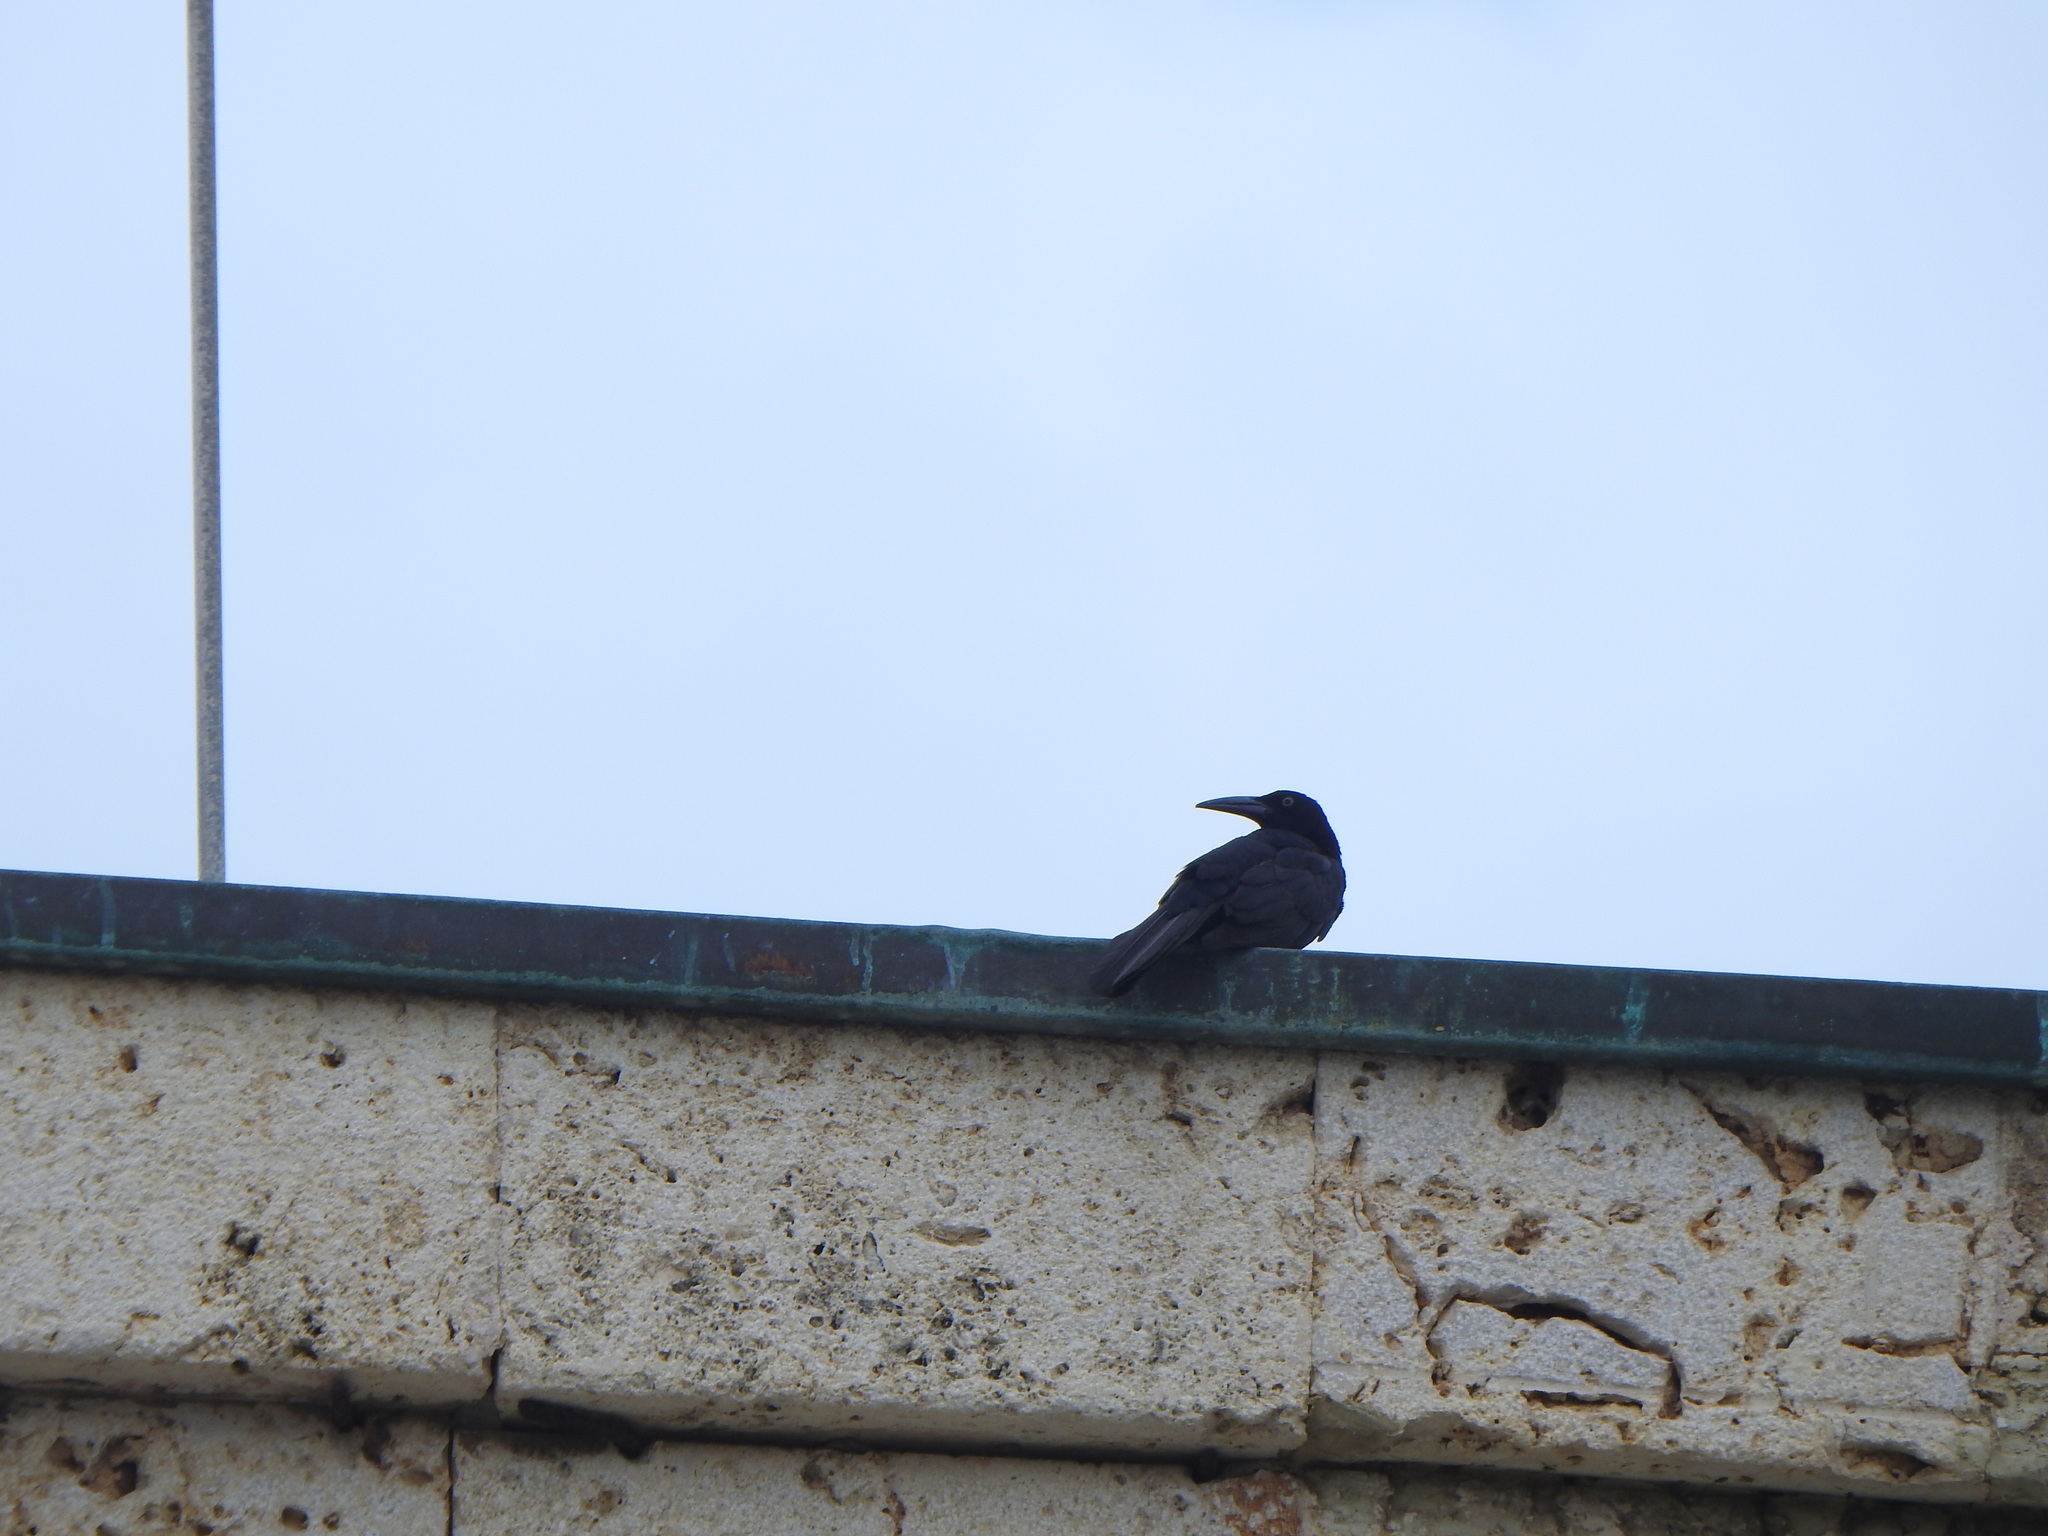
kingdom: Animalia
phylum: Chordata
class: Aves
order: Passeriformes
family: Icteridae
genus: Quiscalus
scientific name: Quiscalus mexicanus
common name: Great-tailed grackle
